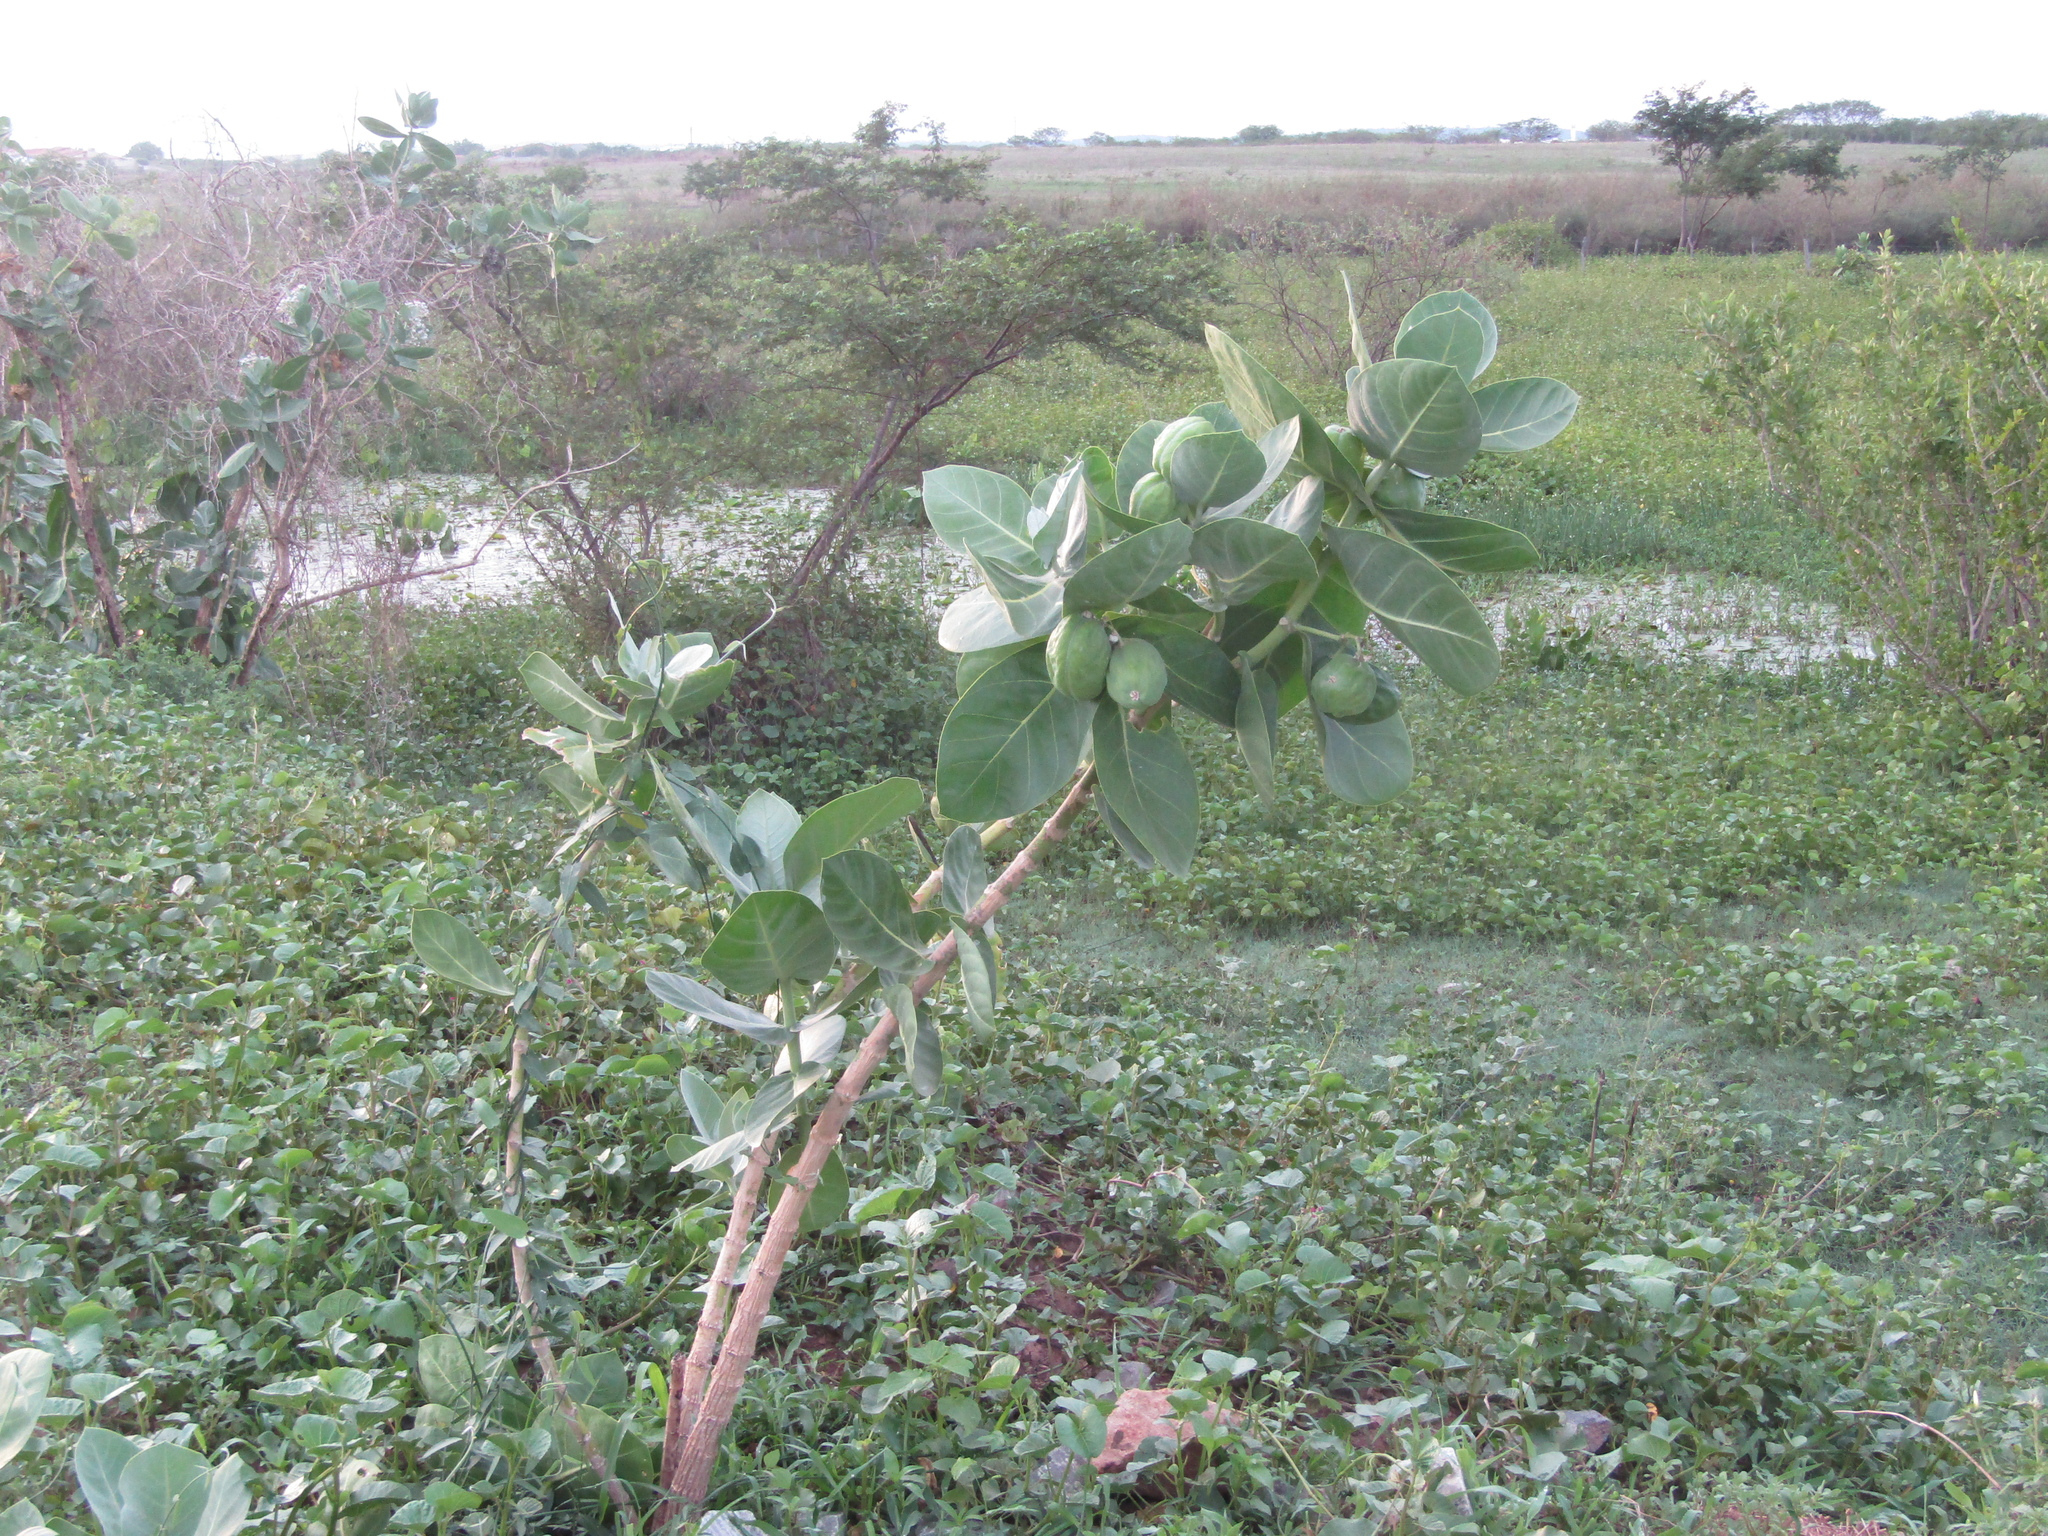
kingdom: Plantae
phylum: Tracheophyta
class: Magnoliopsida
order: Gentianales
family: Apocynaceae
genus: Calotropis
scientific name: Calotropis procera
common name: Roostertree
